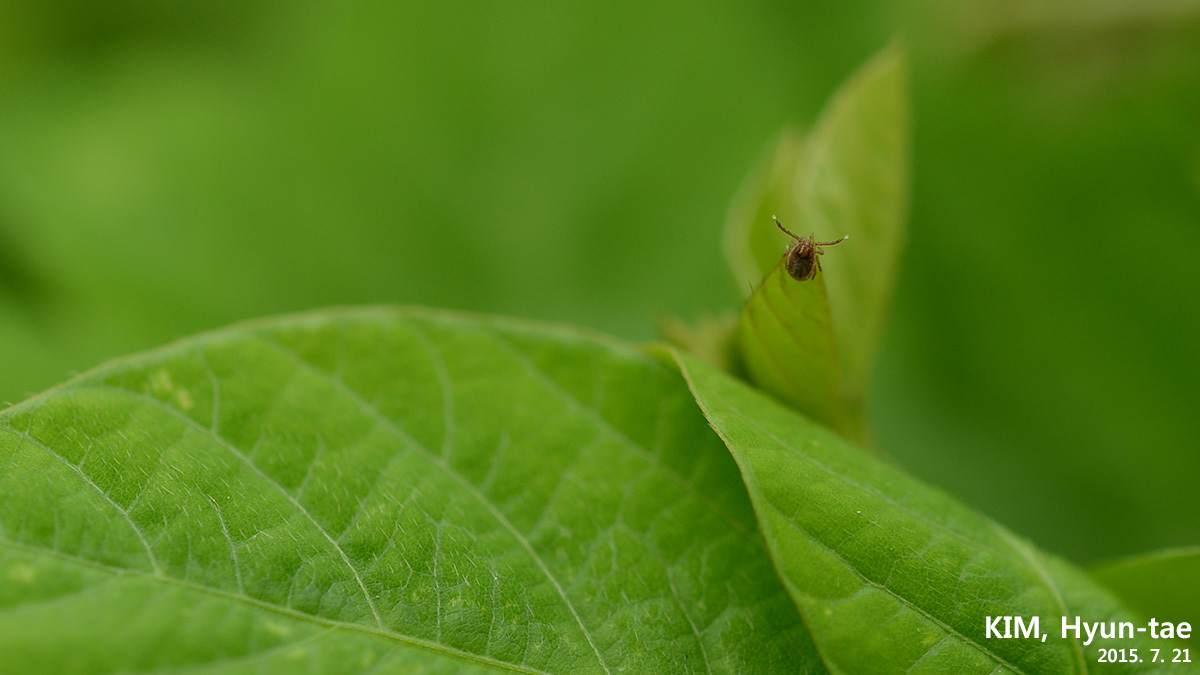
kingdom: Animalia
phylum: Arthropoda
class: Arachnida
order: Ixodida
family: Ixodidae
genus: Haemaphysalis
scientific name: Haemaphysalis longicornis
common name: Bush tick
